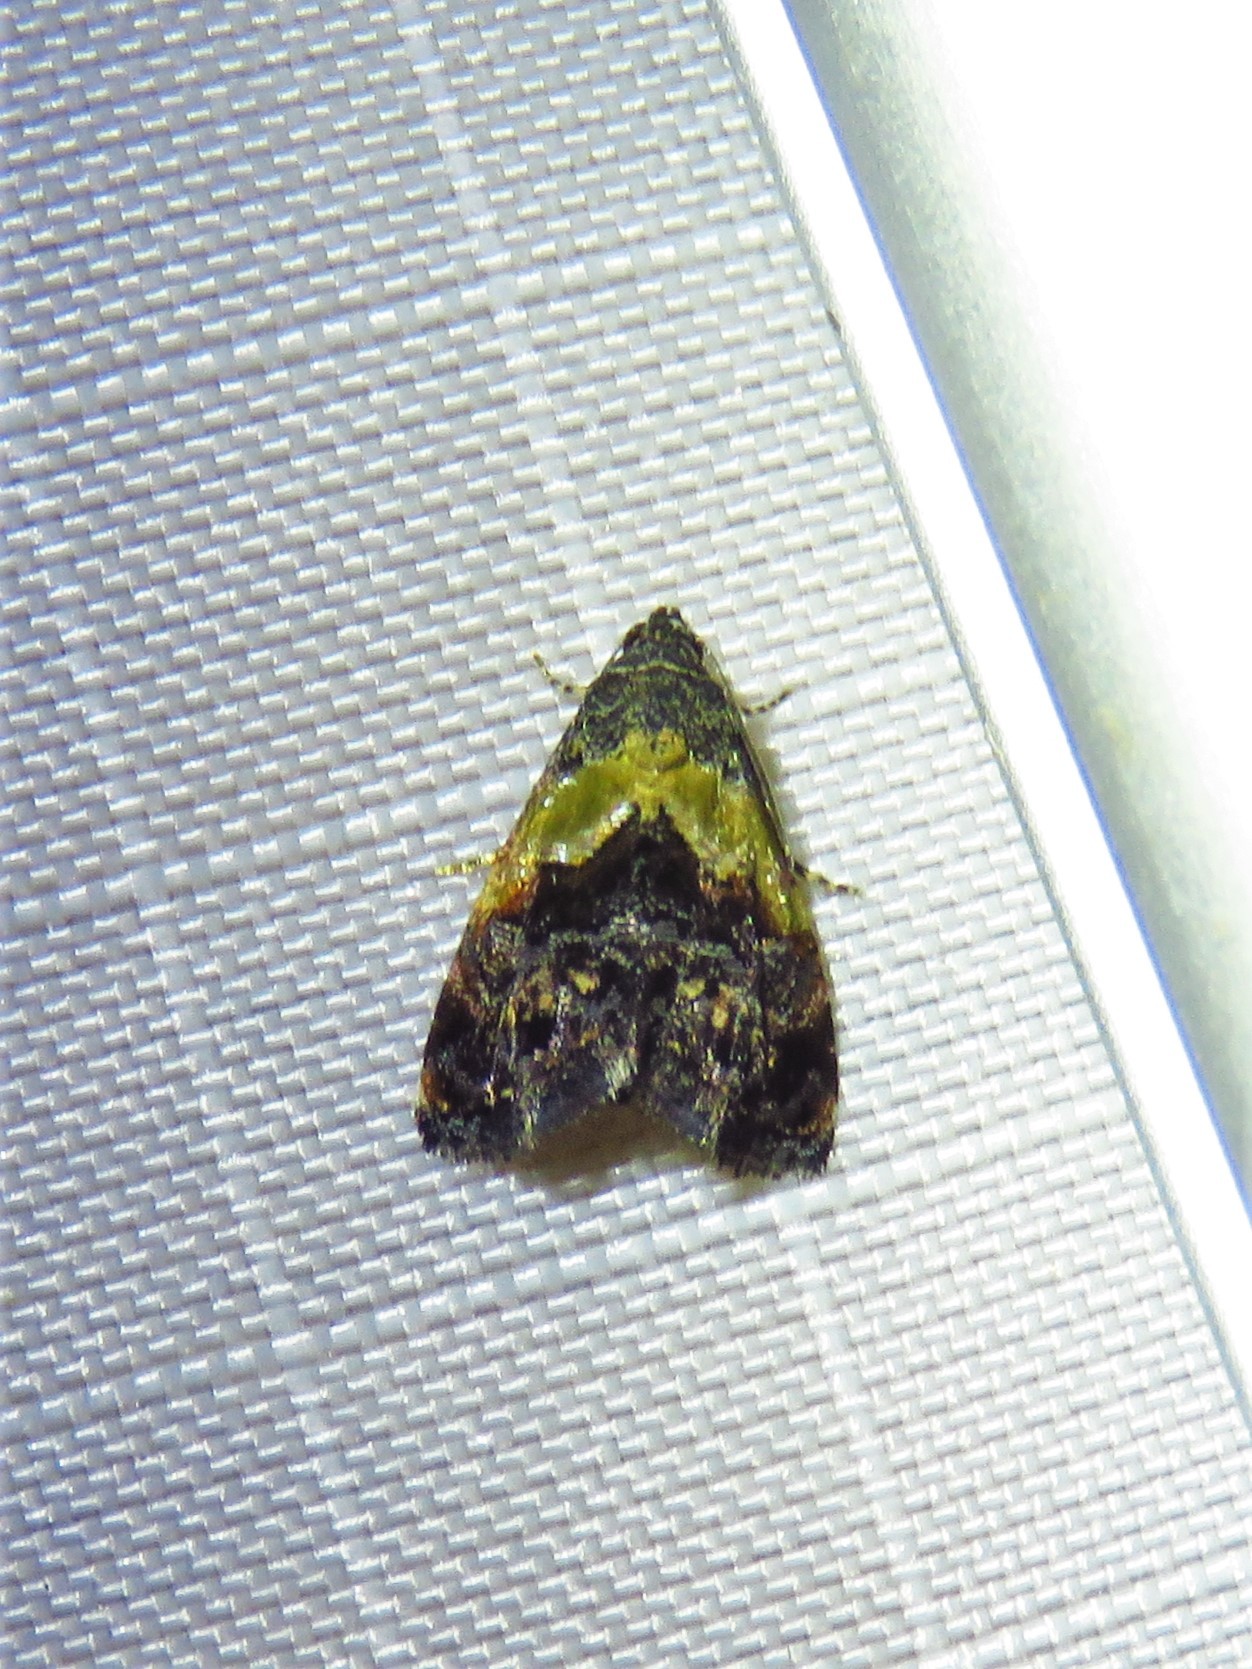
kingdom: Animalia
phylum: Arthropoda
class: Insecta
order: Lepidoptera
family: Noctuidae
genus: Tripudia
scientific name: Tripudia flavofasciata
